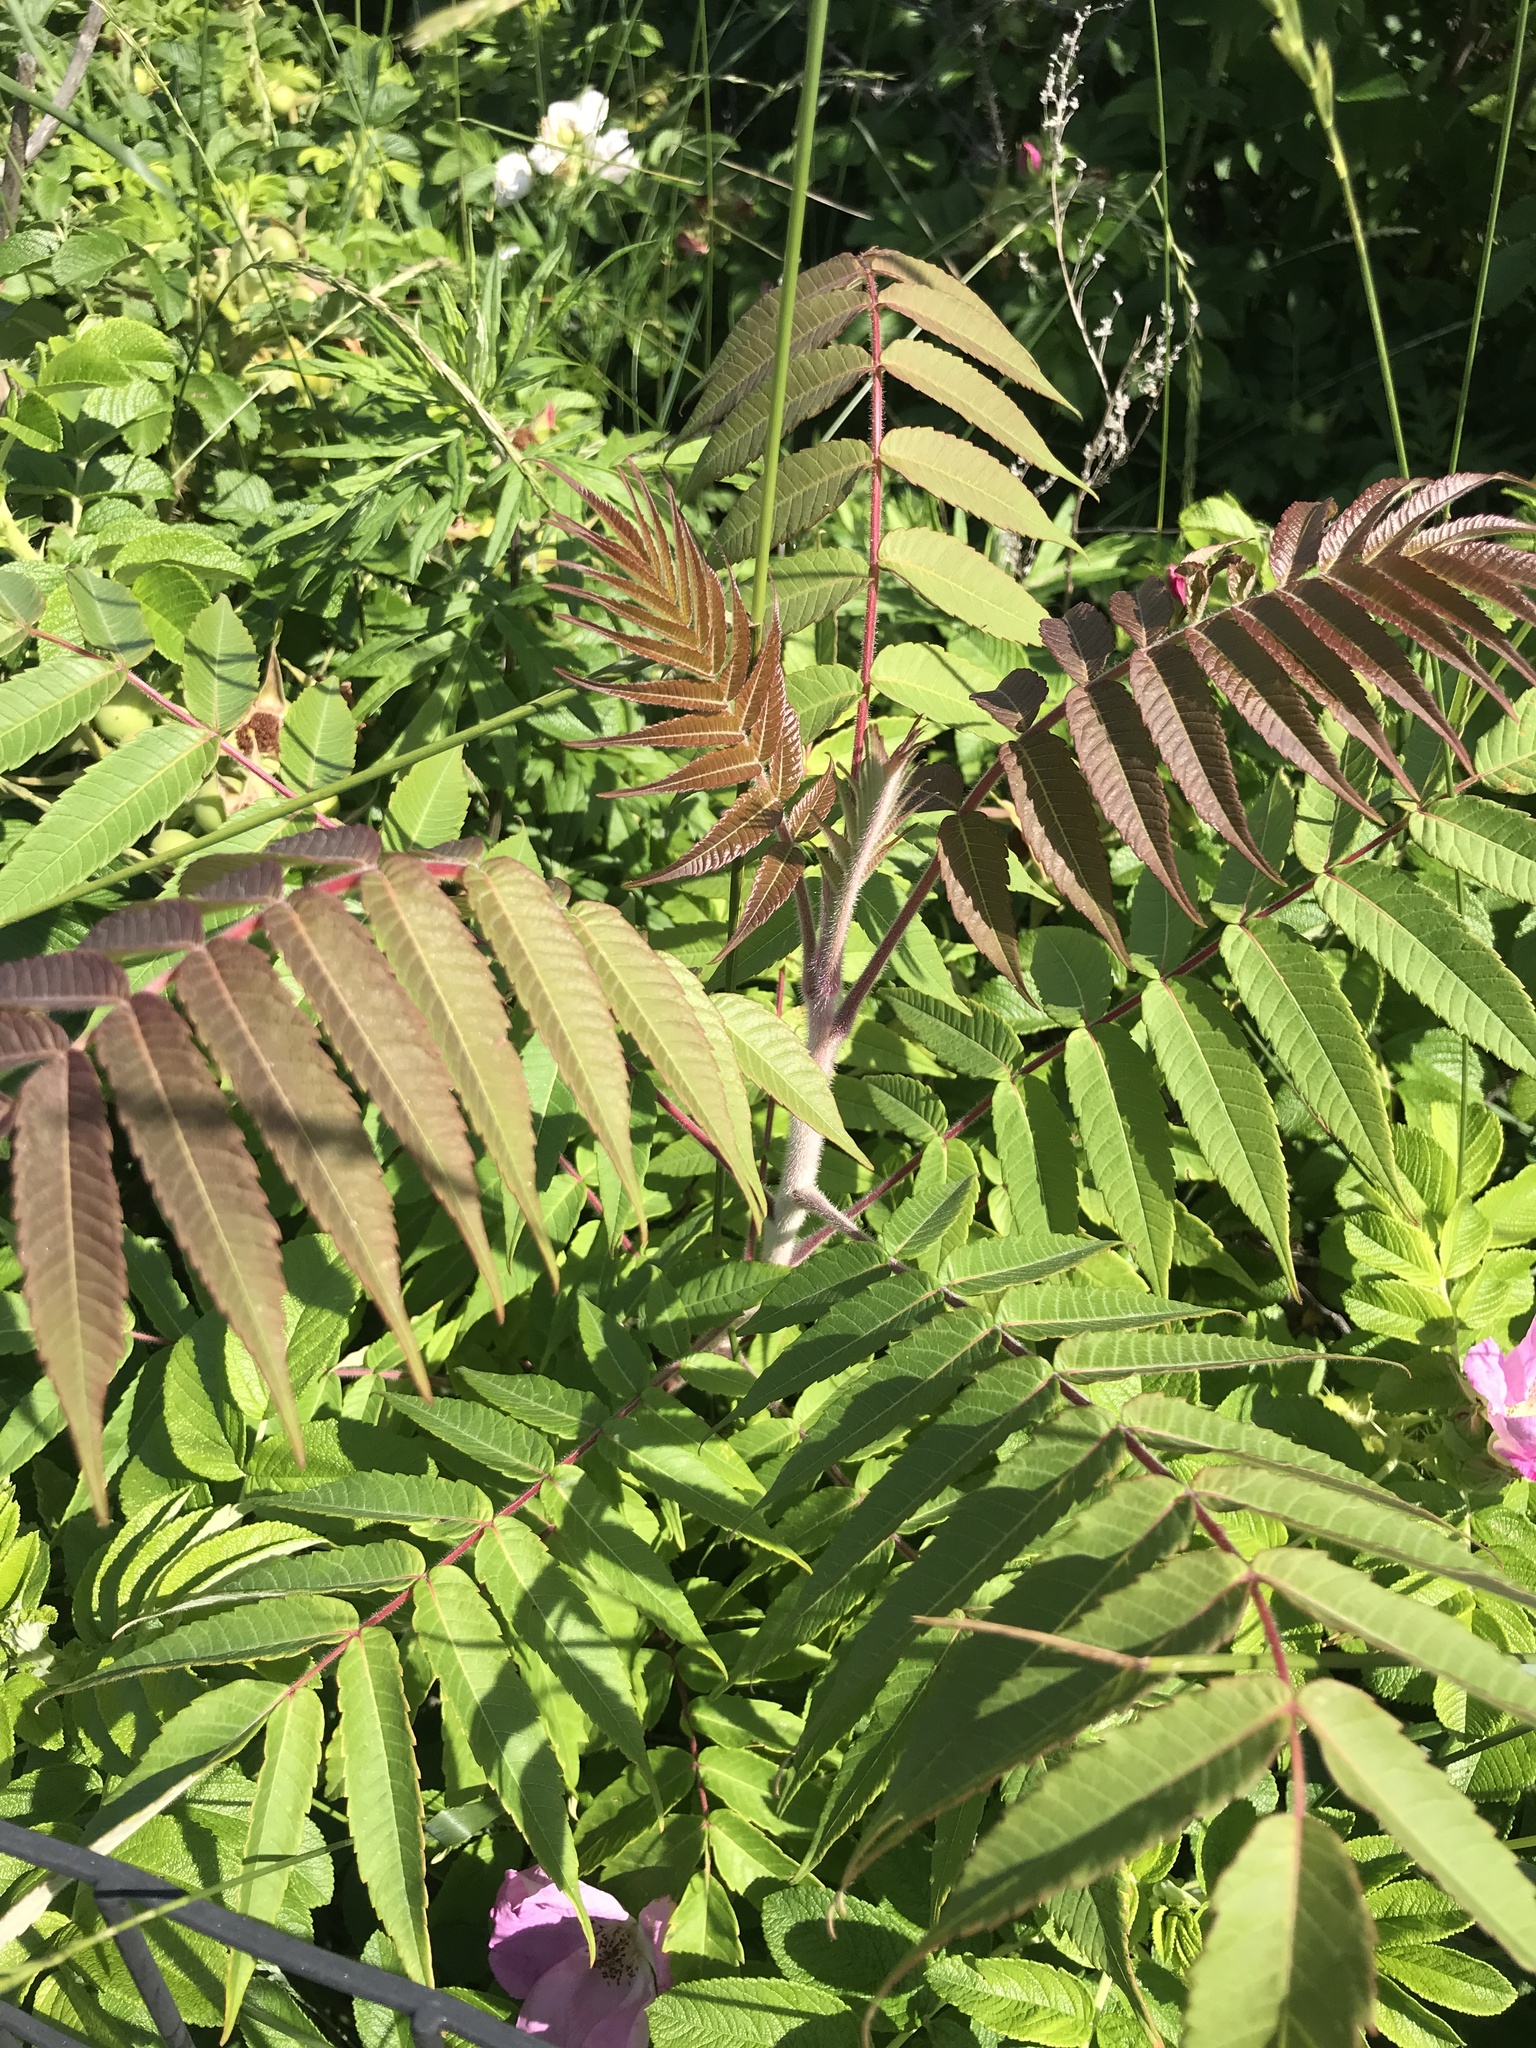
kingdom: Plantae
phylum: Tracheophyta
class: Magnoliopsida
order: Sapindales
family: Anacardiaceae
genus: Rhus
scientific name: Rhus typhina
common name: Staghorn sumac
